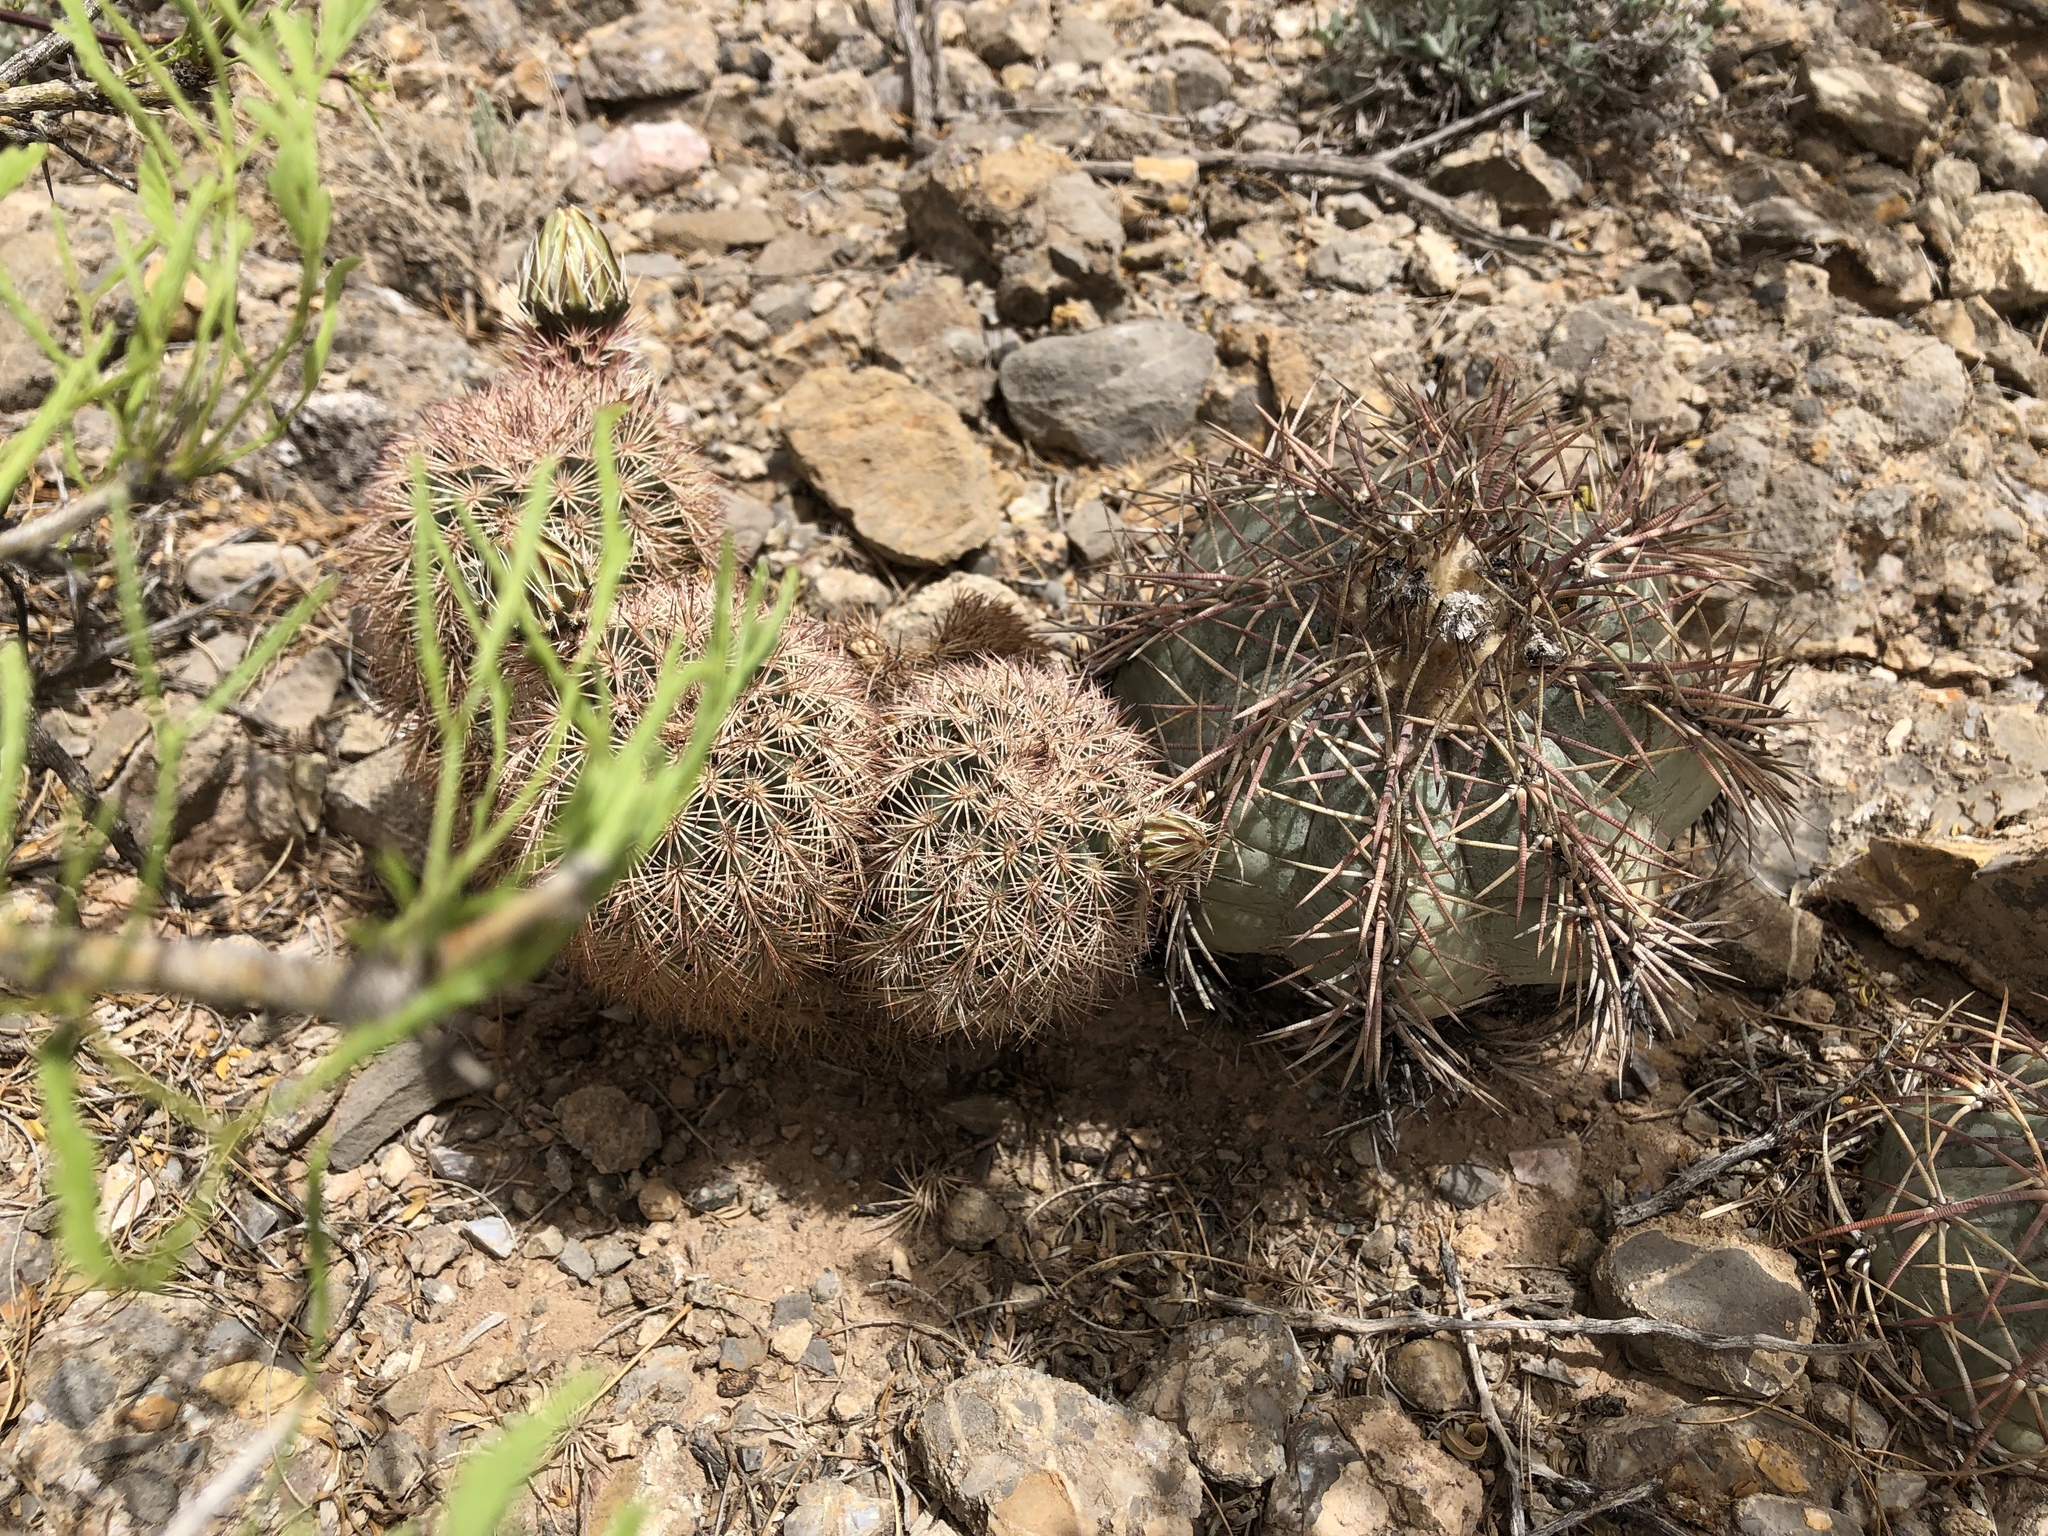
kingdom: Plantae
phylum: Tracheophyta
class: Magnoliopsida
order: Caryophyllales
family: Cactaceae
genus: Echinocereus
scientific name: Echinocereus dasyacanthus
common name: Spiny hedgehog cactus
